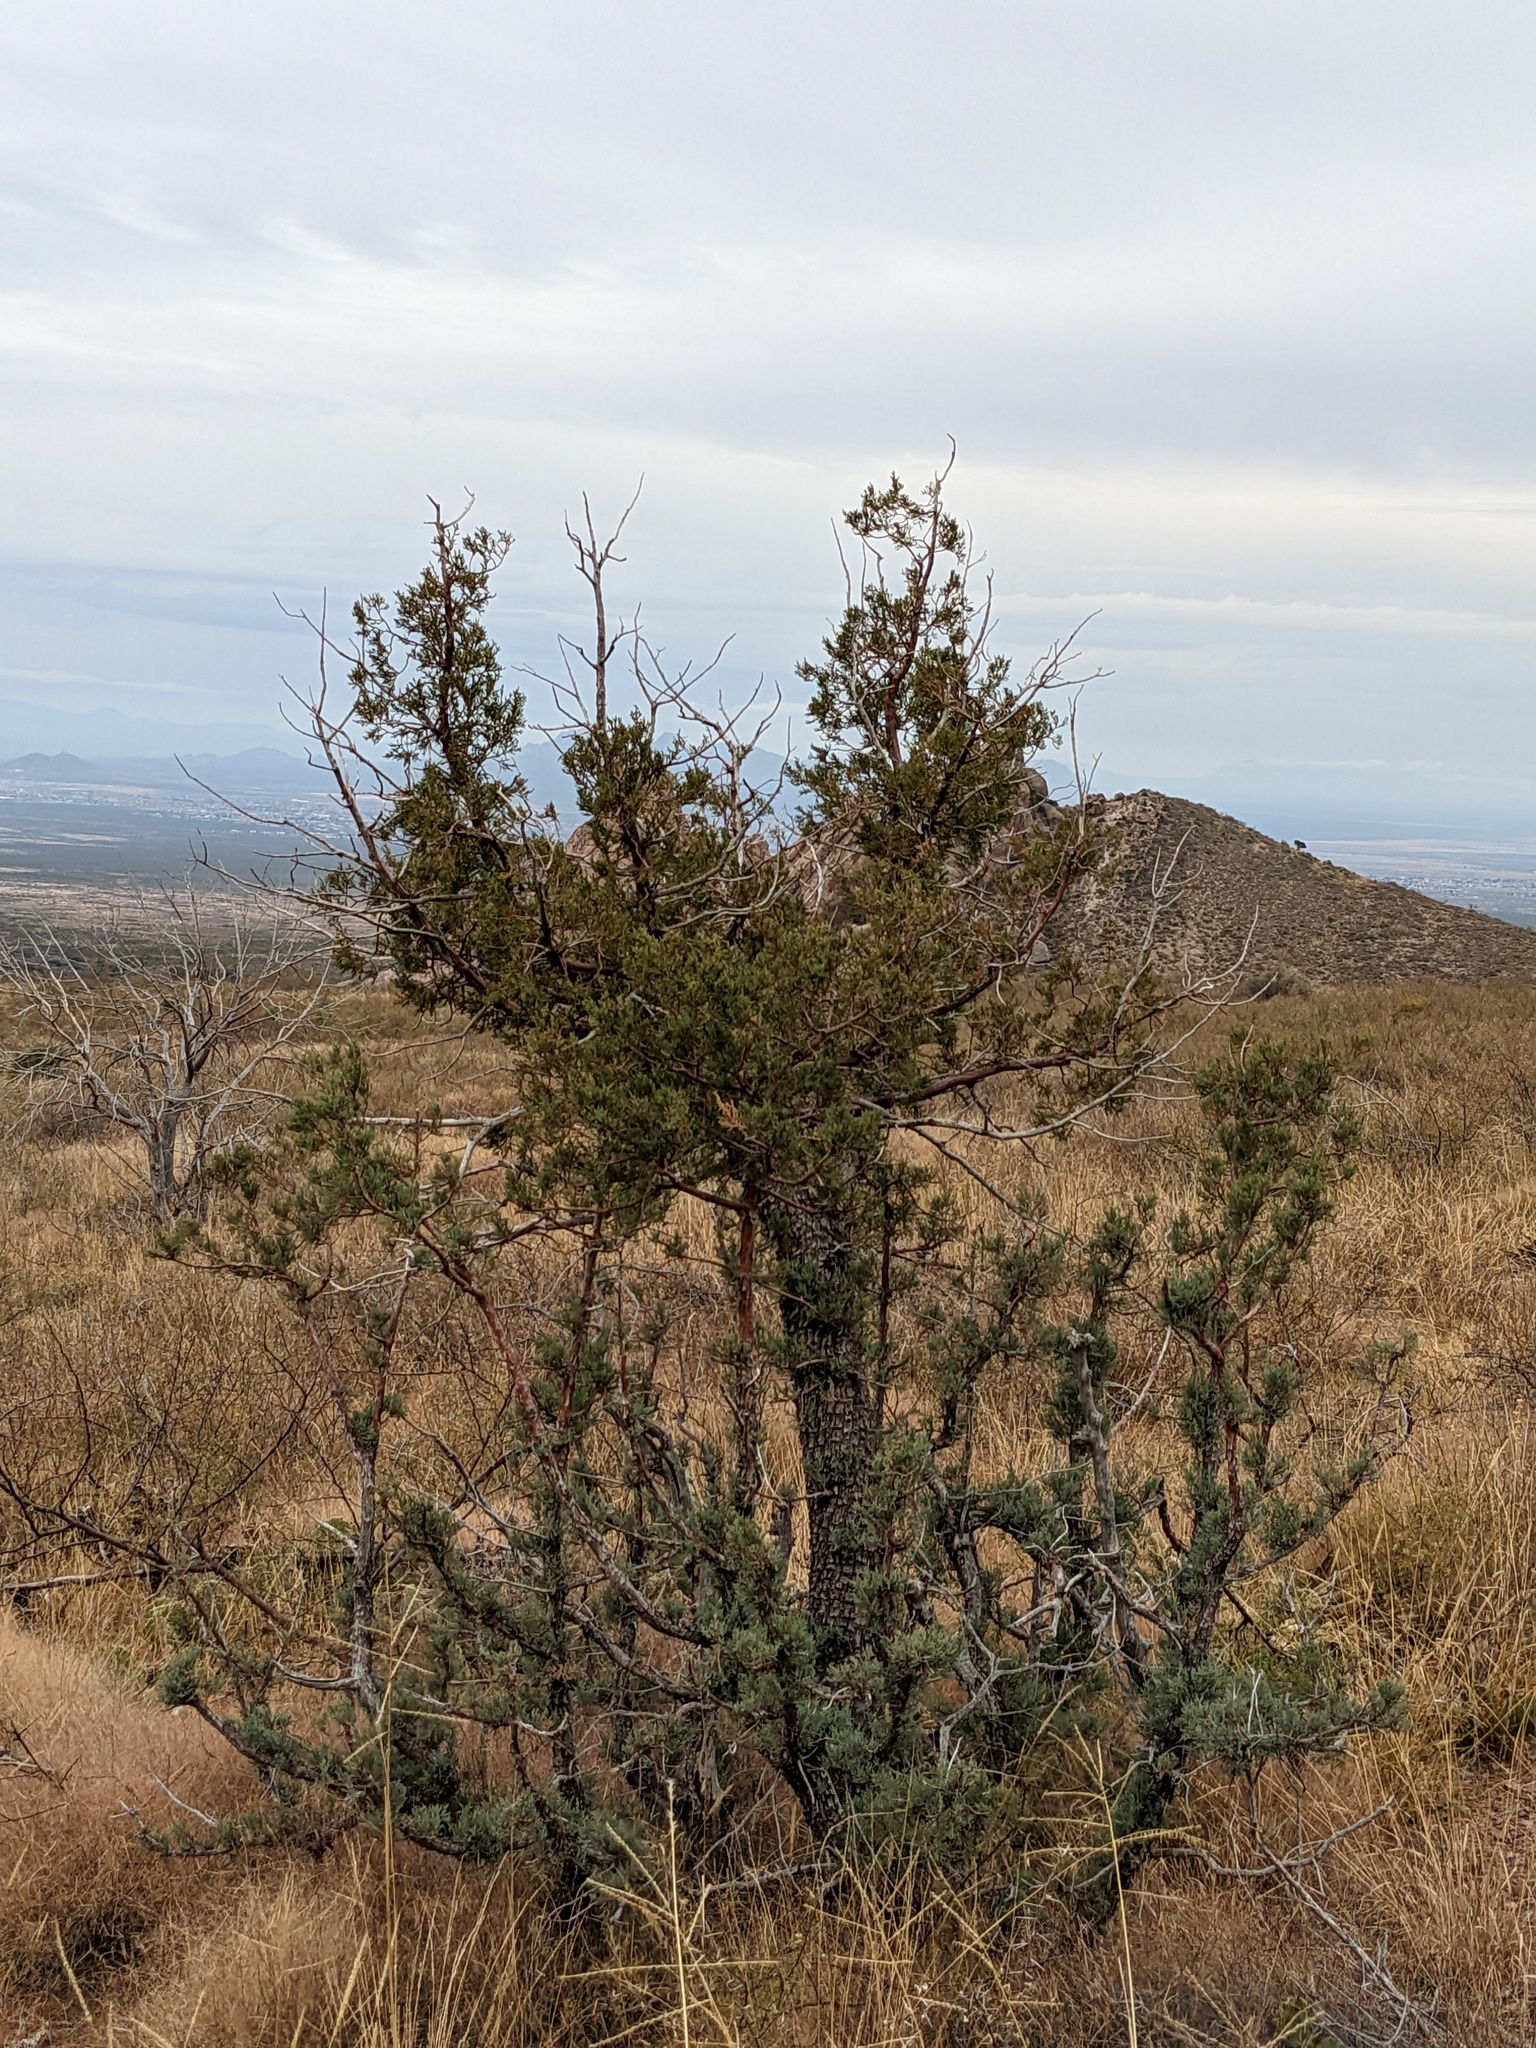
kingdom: Plantae
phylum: Tracheophyta
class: Pinopsida
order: Pinales
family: Cupressaceae
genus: Juniperus
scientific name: Juniperus deppeana
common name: Alligator juniper
